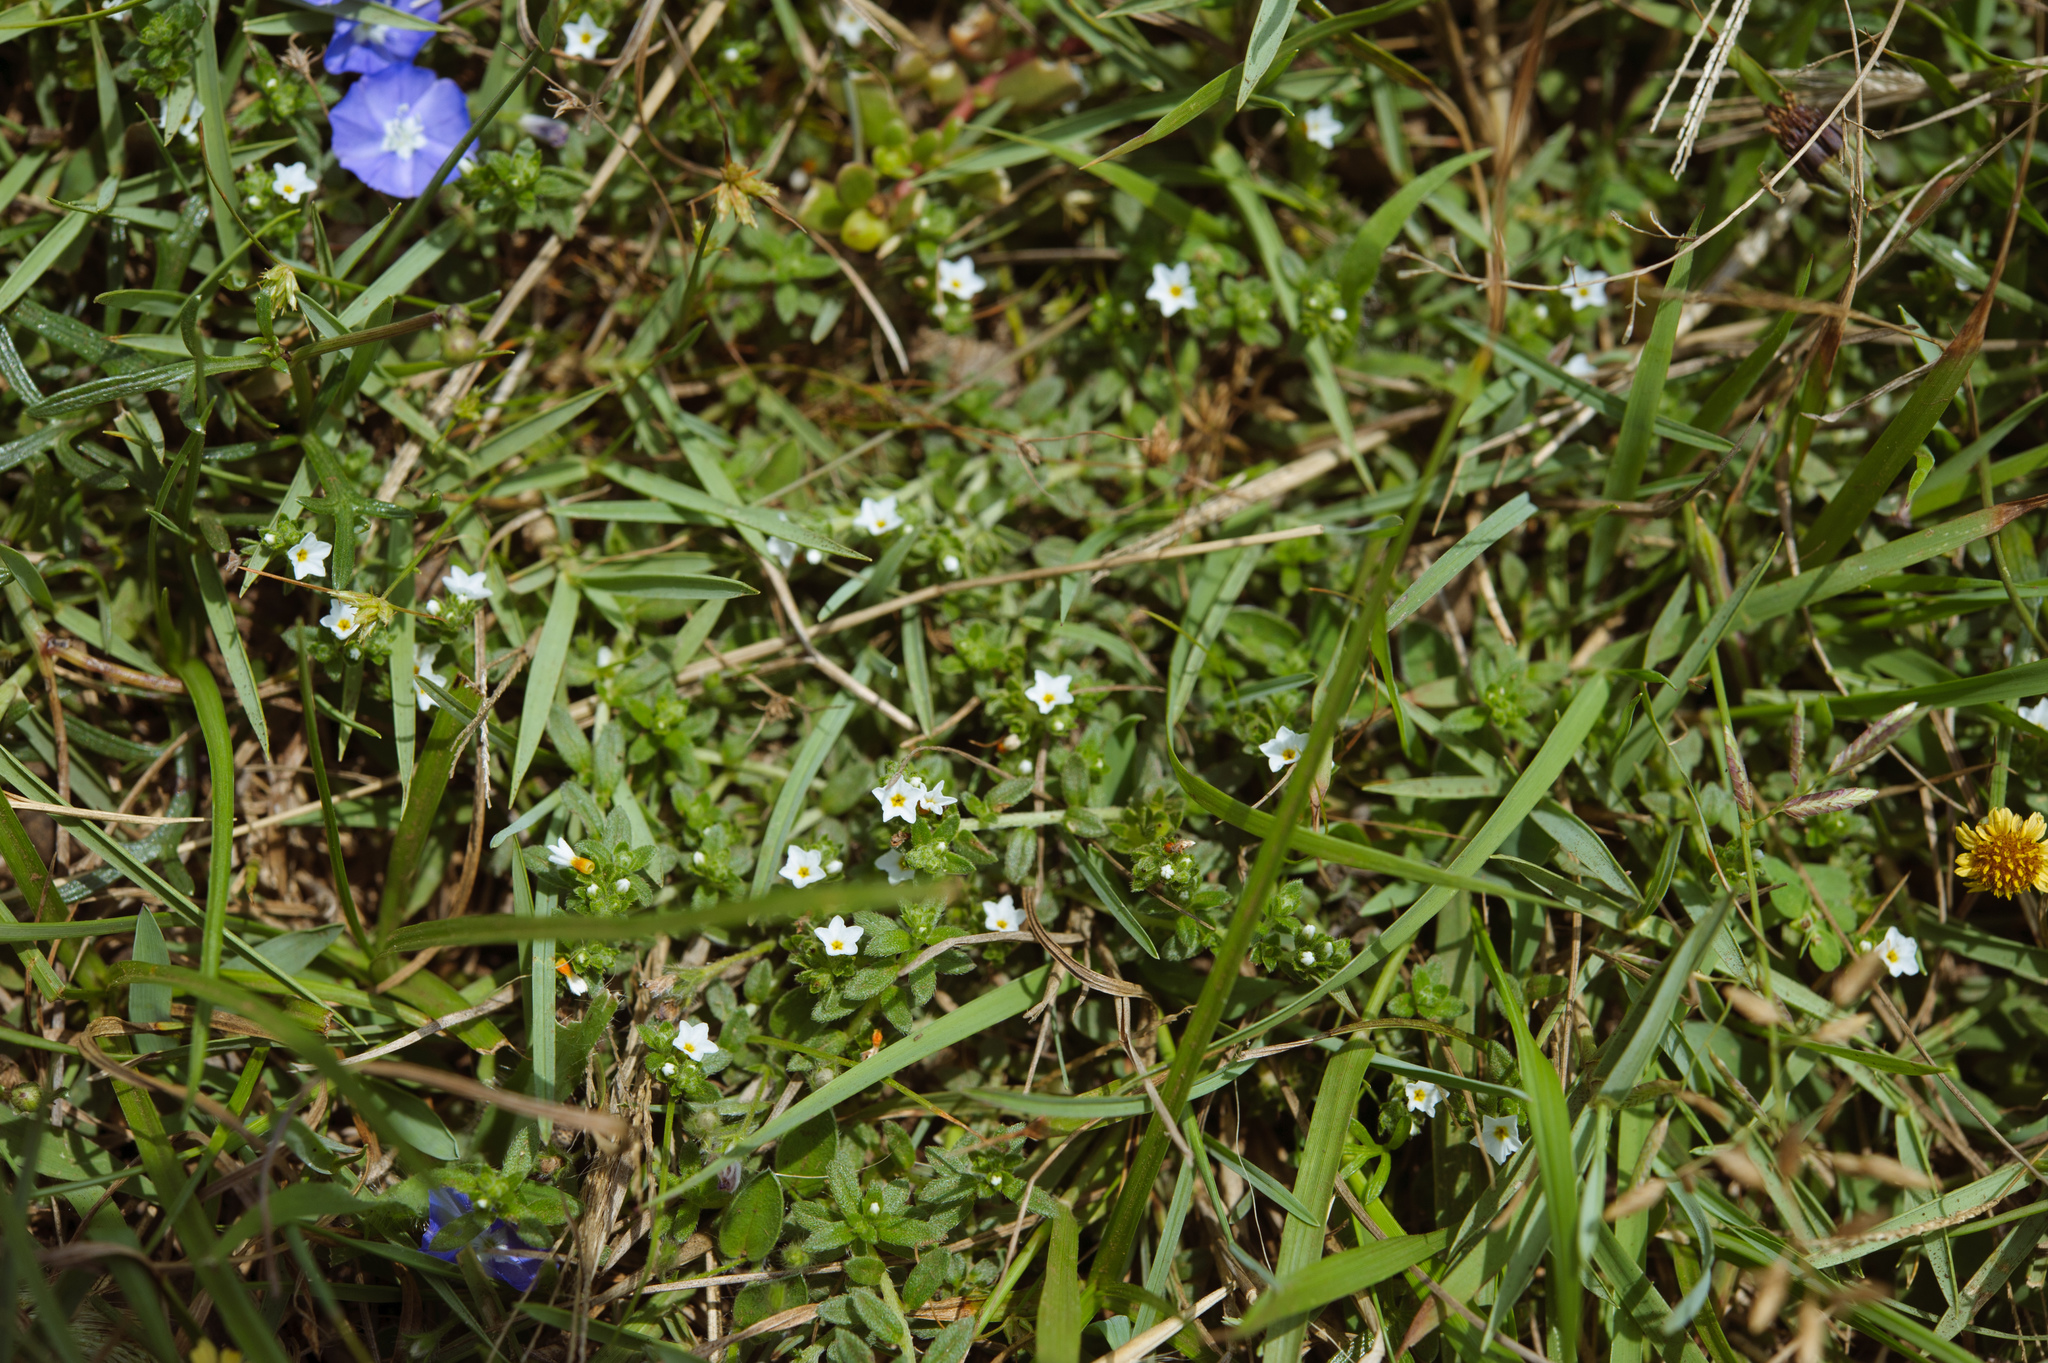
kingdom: Plantae
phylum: Tracheophyta
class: Magnoliopsida
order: Boraginales
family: Heliotropiaceae
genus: Heliotropium
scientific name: Heliotropium formosanum
